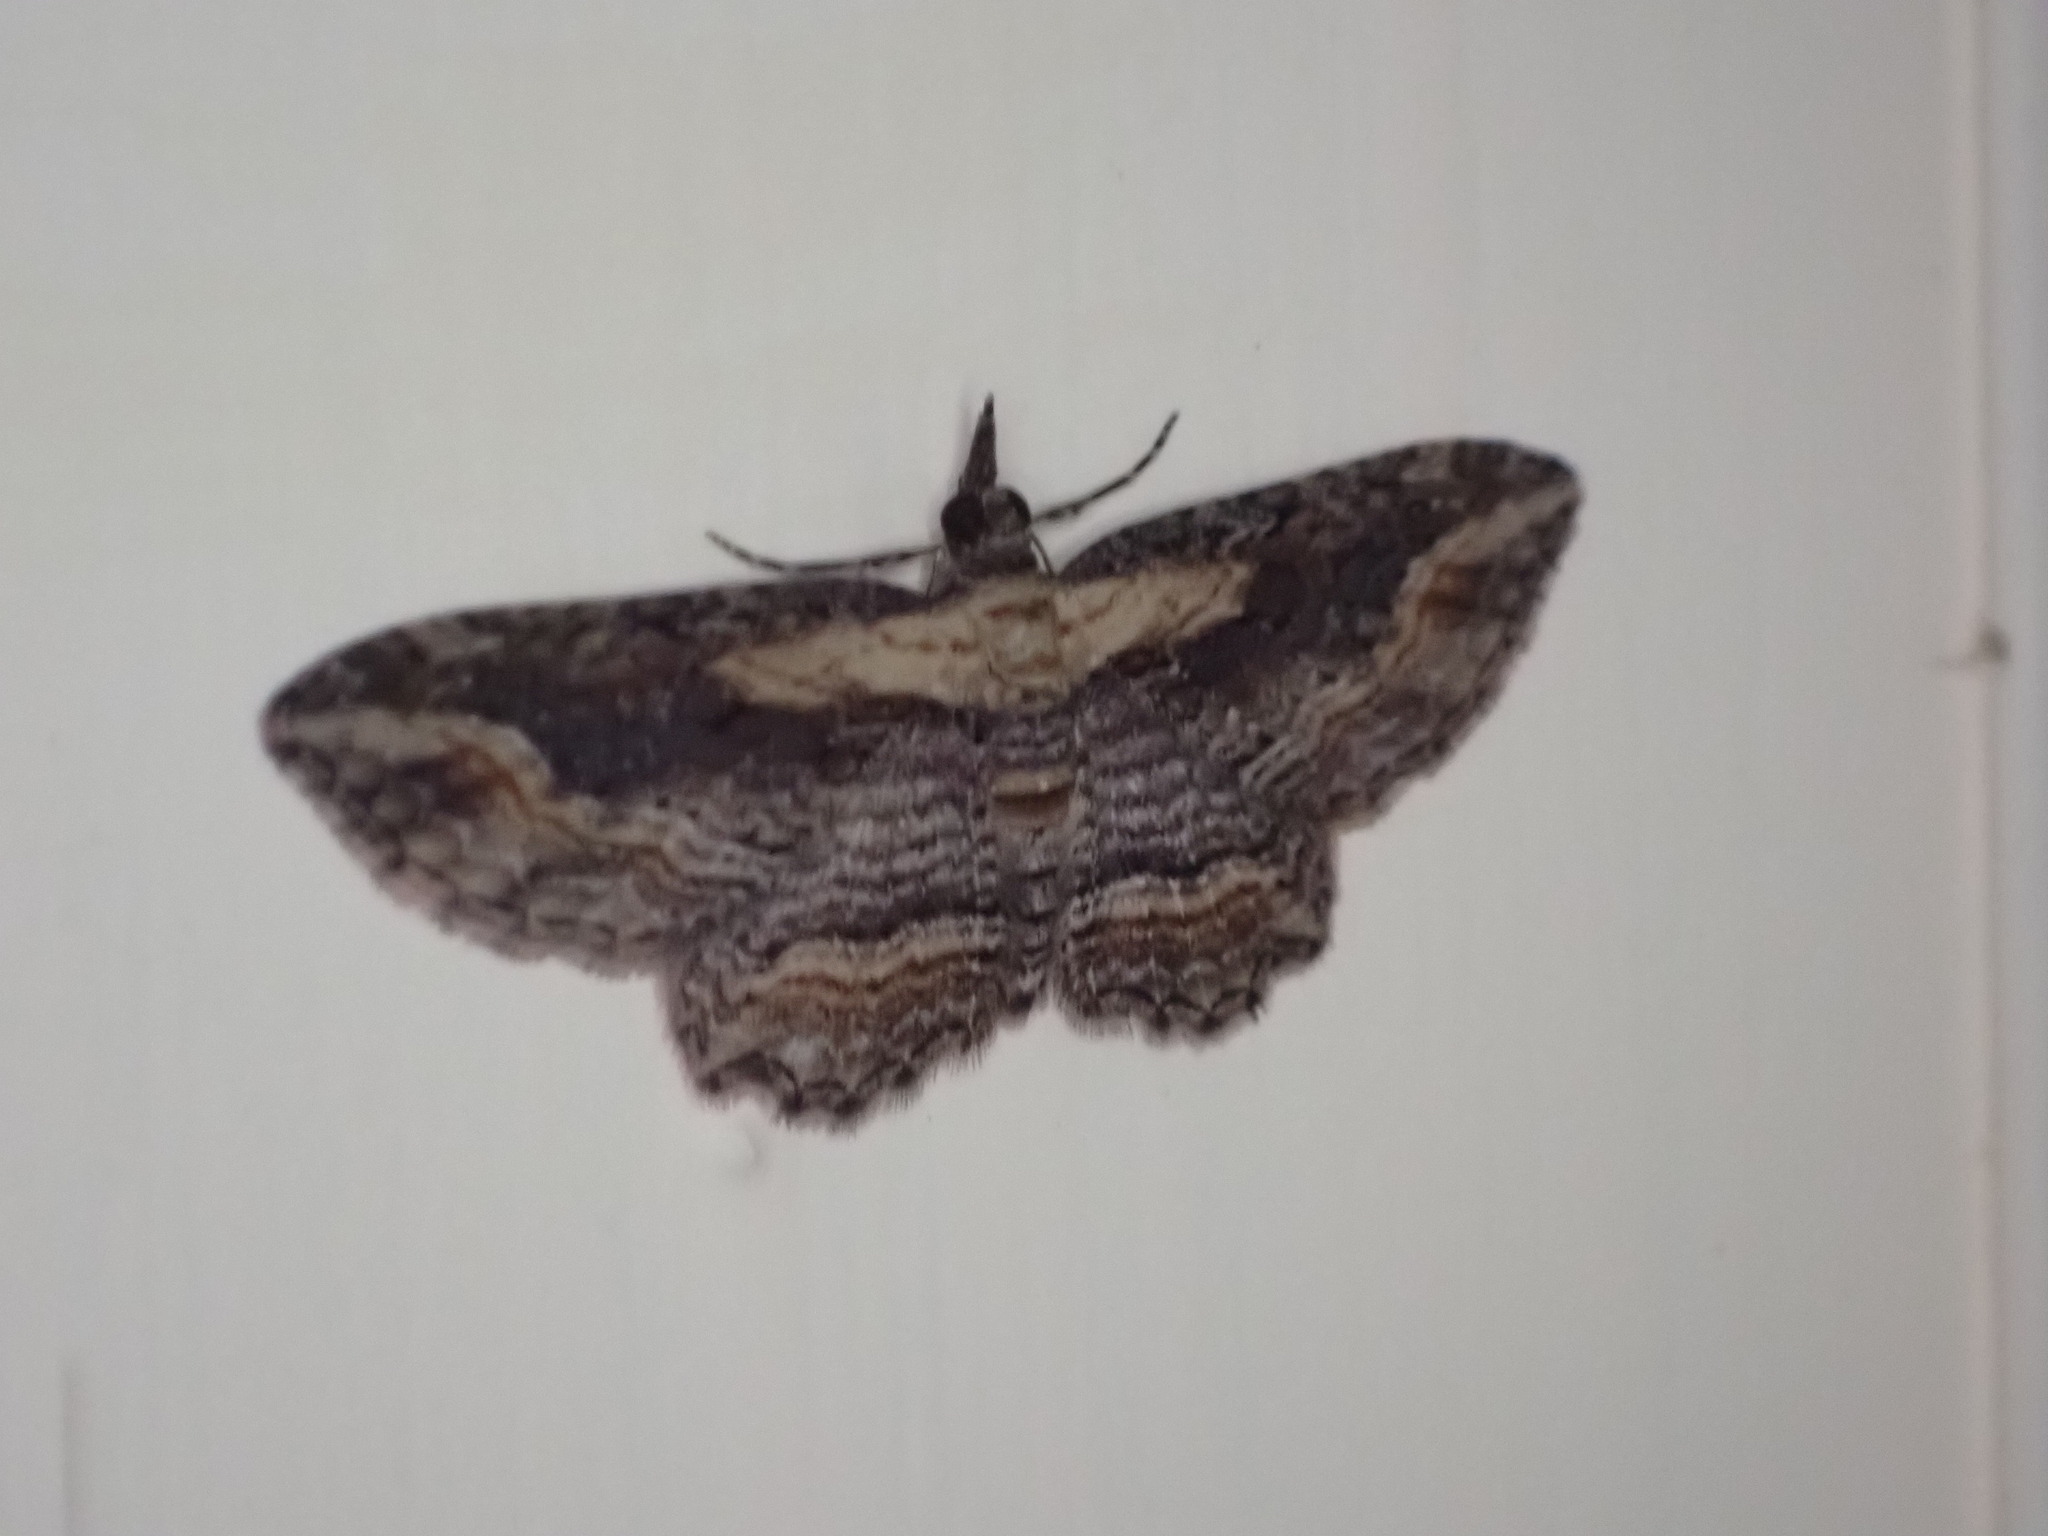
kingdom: Animalia
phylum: Arthropoda
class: Insecta
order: Lepidoptera
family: Geometridae
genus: Chloroclystis
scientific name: Chloroclystis filata
